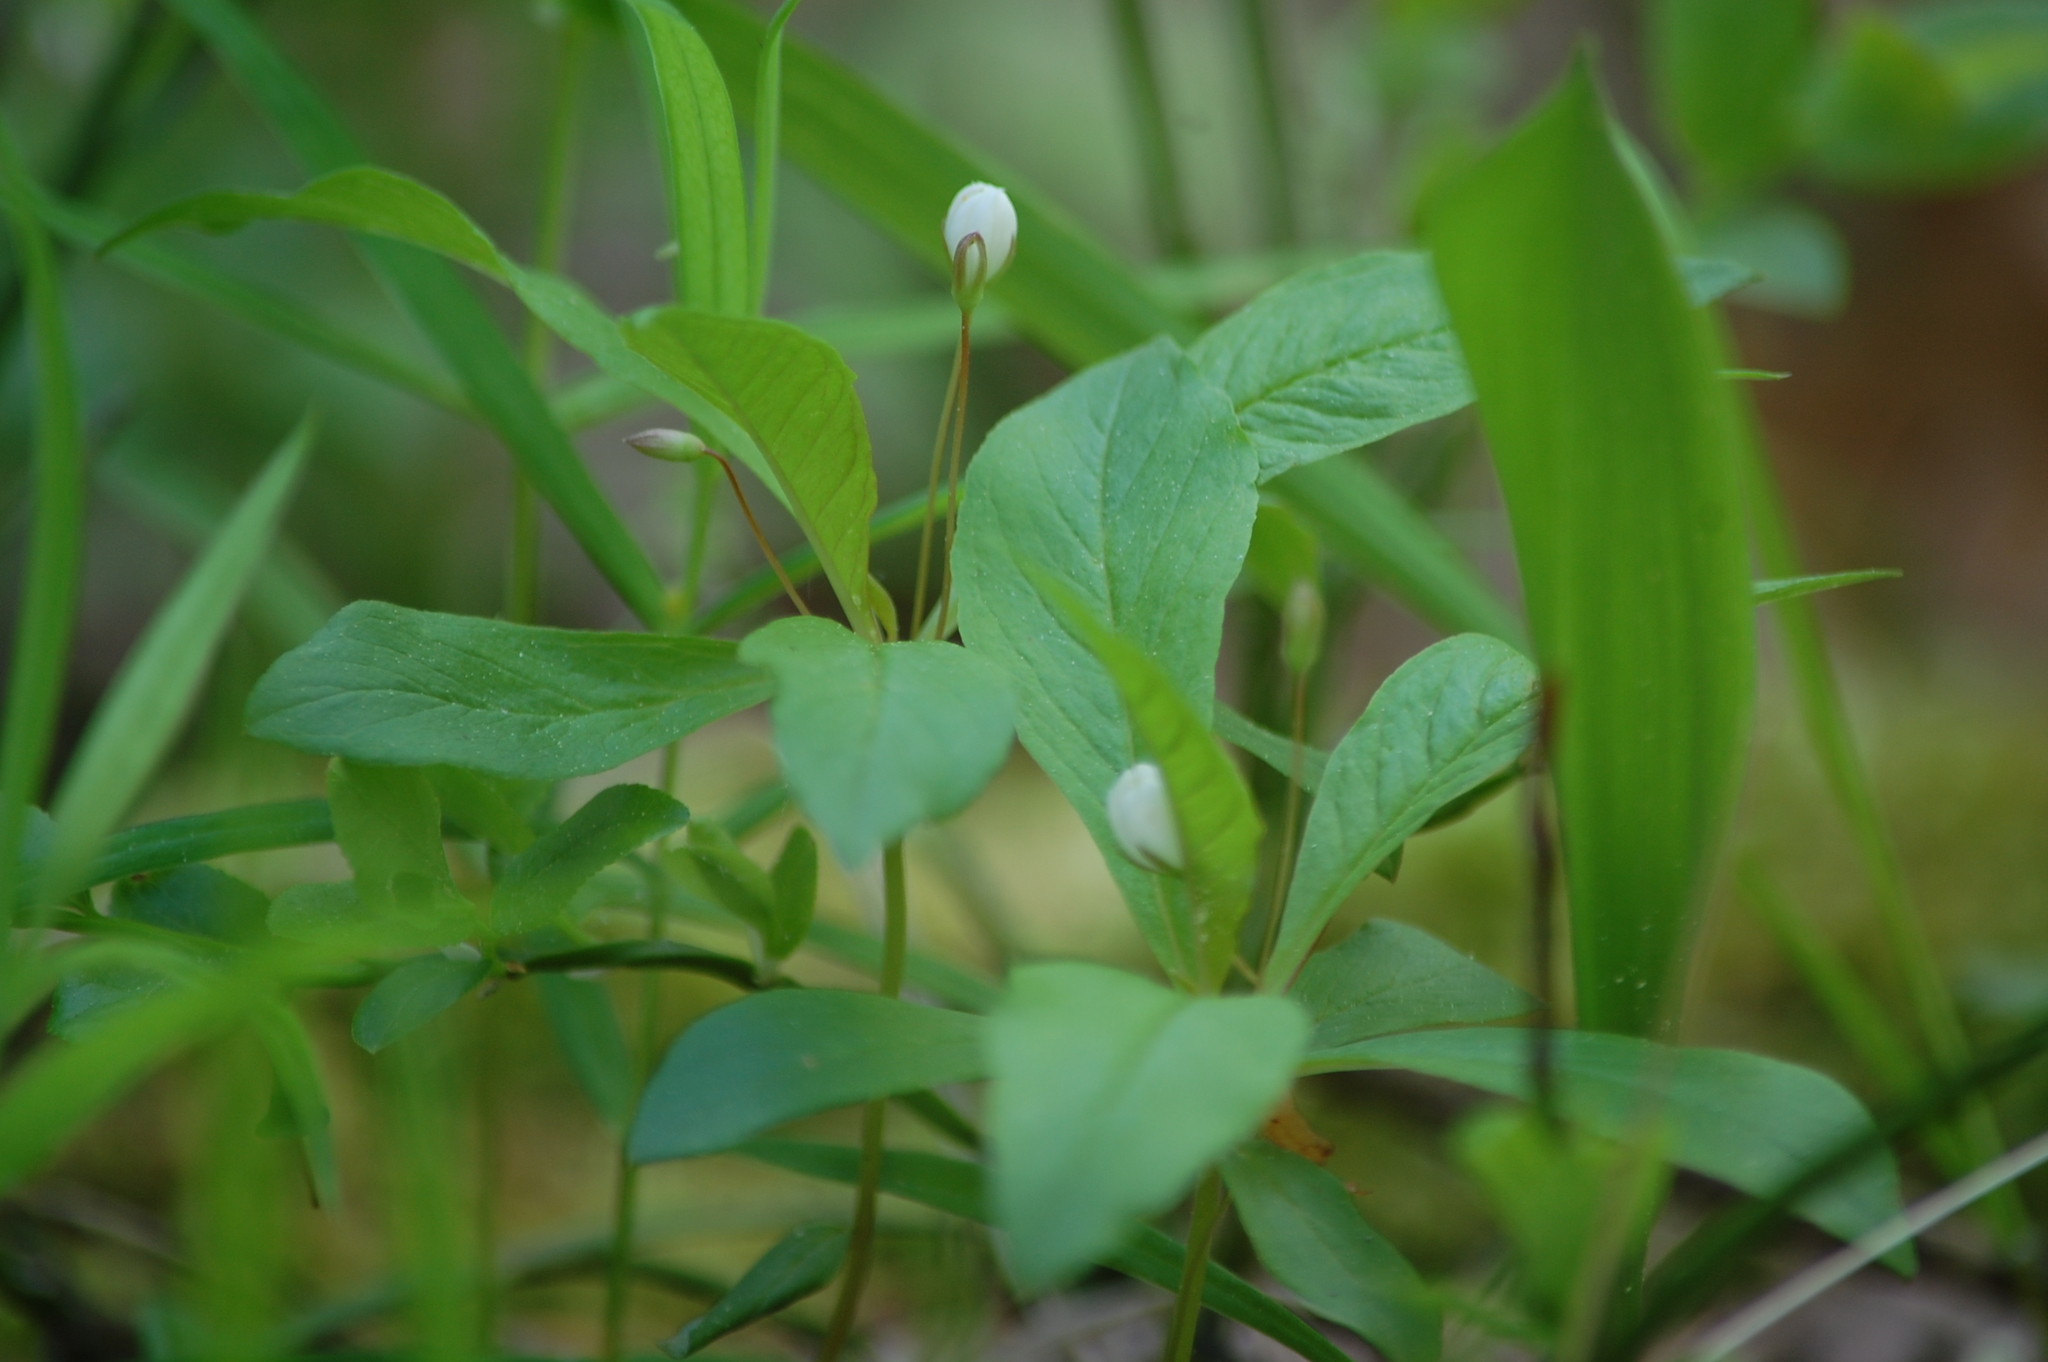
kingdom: Plantae
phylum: Tracheophyta
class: Magnoliopsida
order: Ericales
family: Primulaceae
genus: Lysimachia
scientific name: Lysimachia europaea
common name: Arctic starflower
